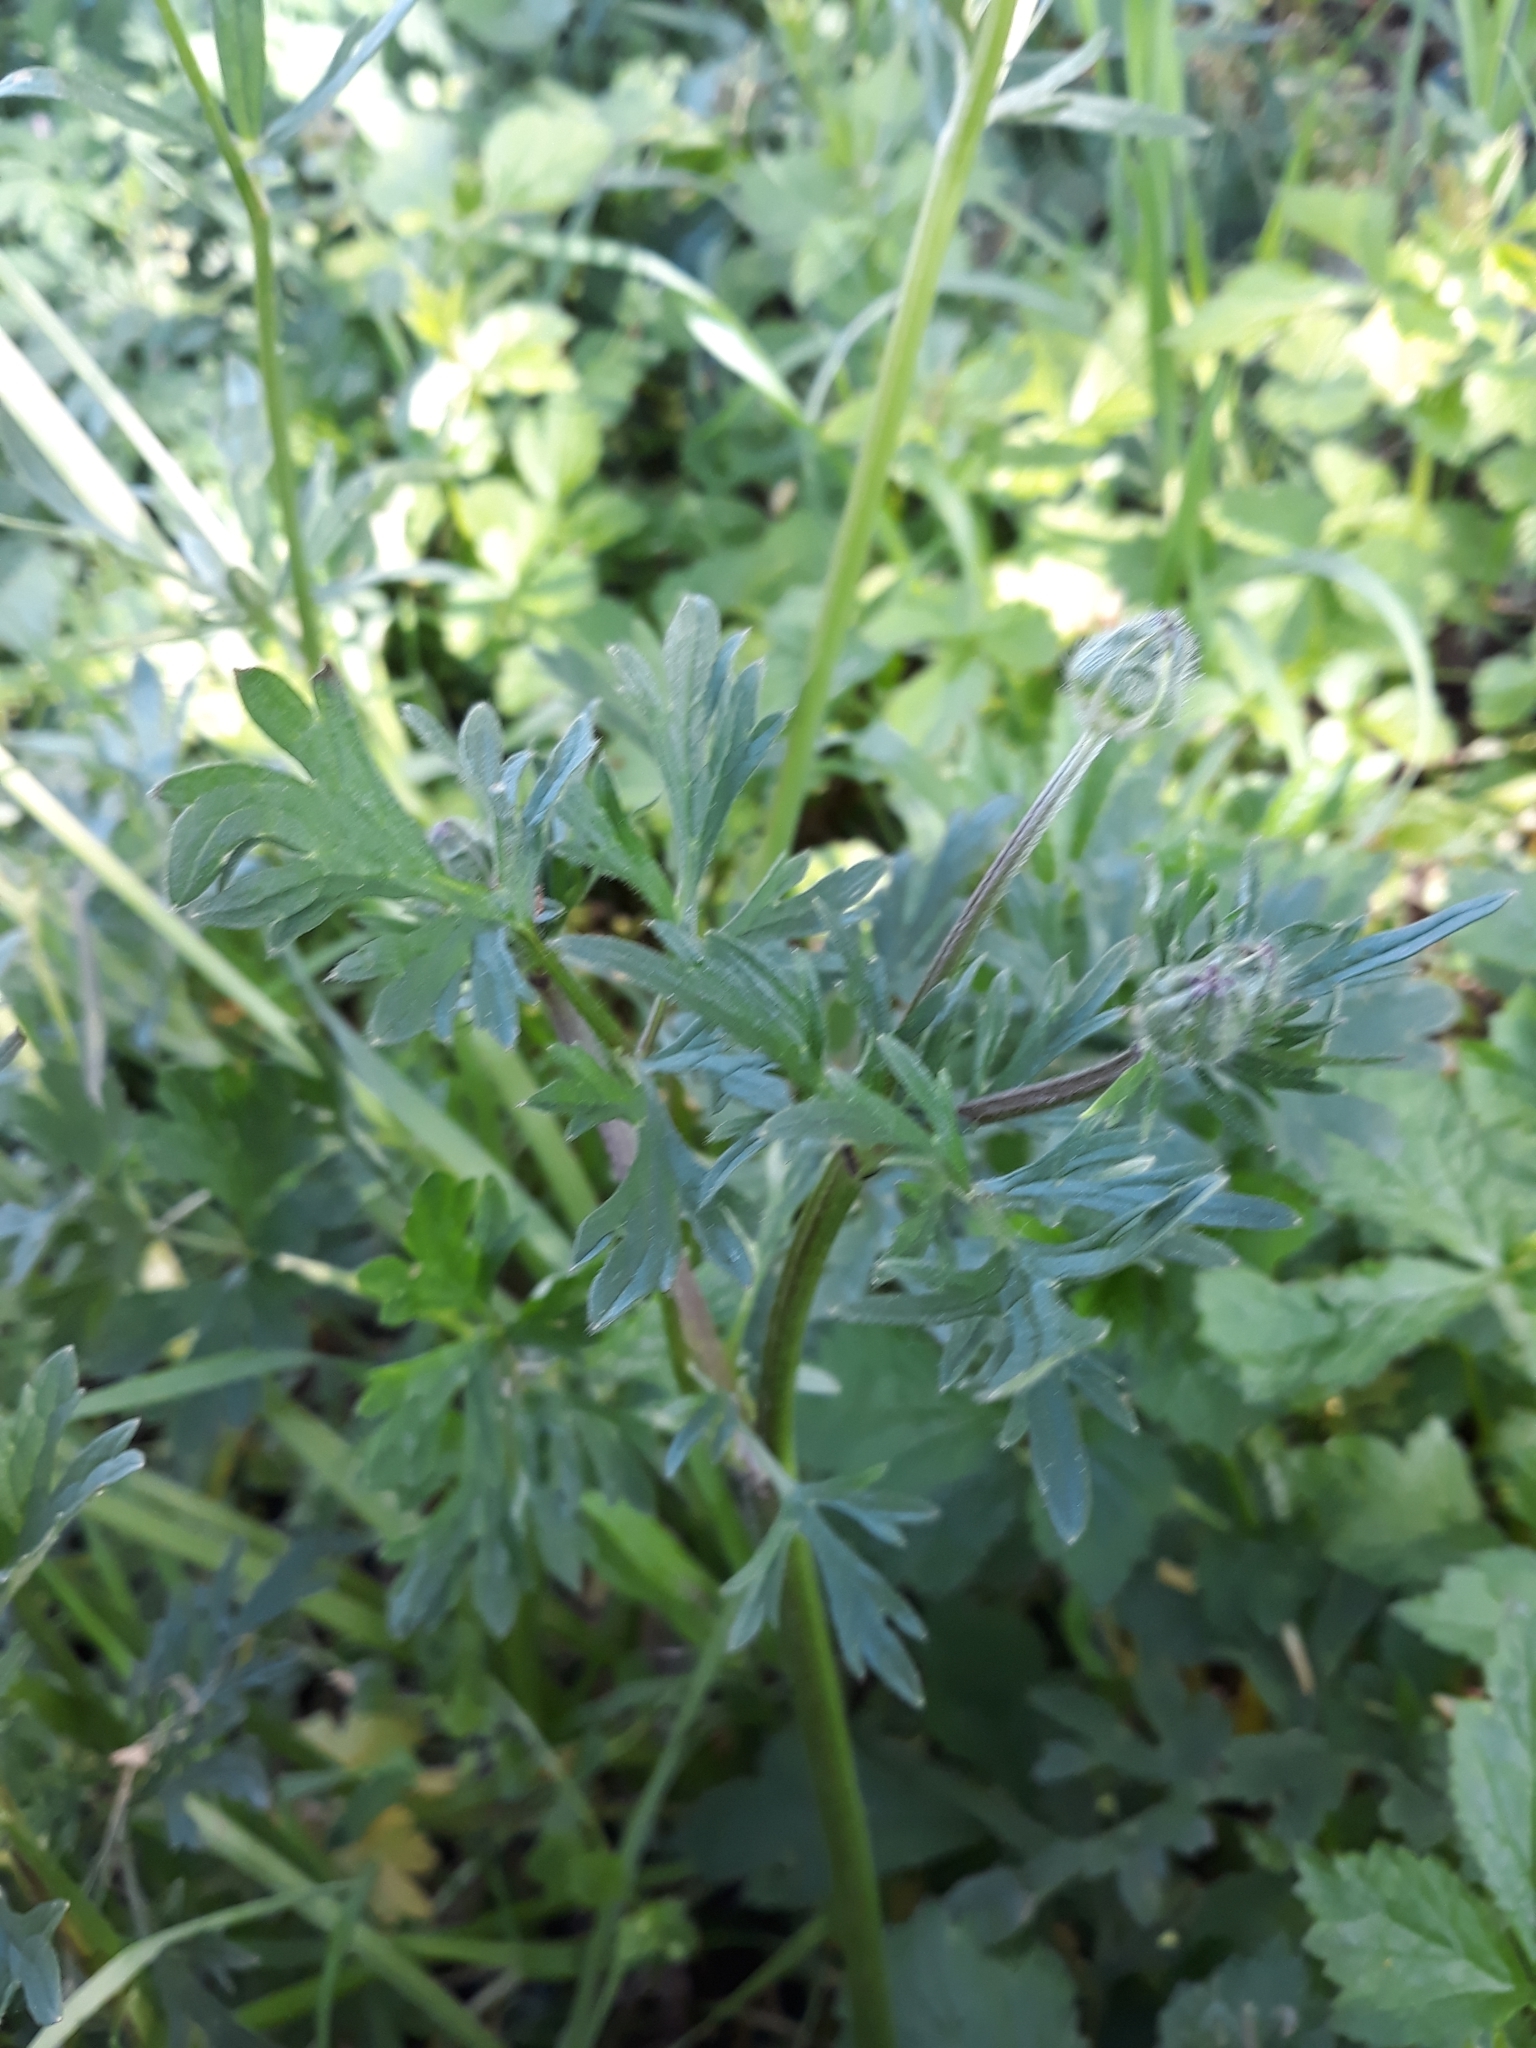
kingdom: Plantae
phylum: Tracheophyta
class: Magnoliopsida
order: Ranunculales
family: Ranunculaceae
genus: Ranunculus
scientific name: Ranunculus bulbosus
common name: Bulbous buttercup
